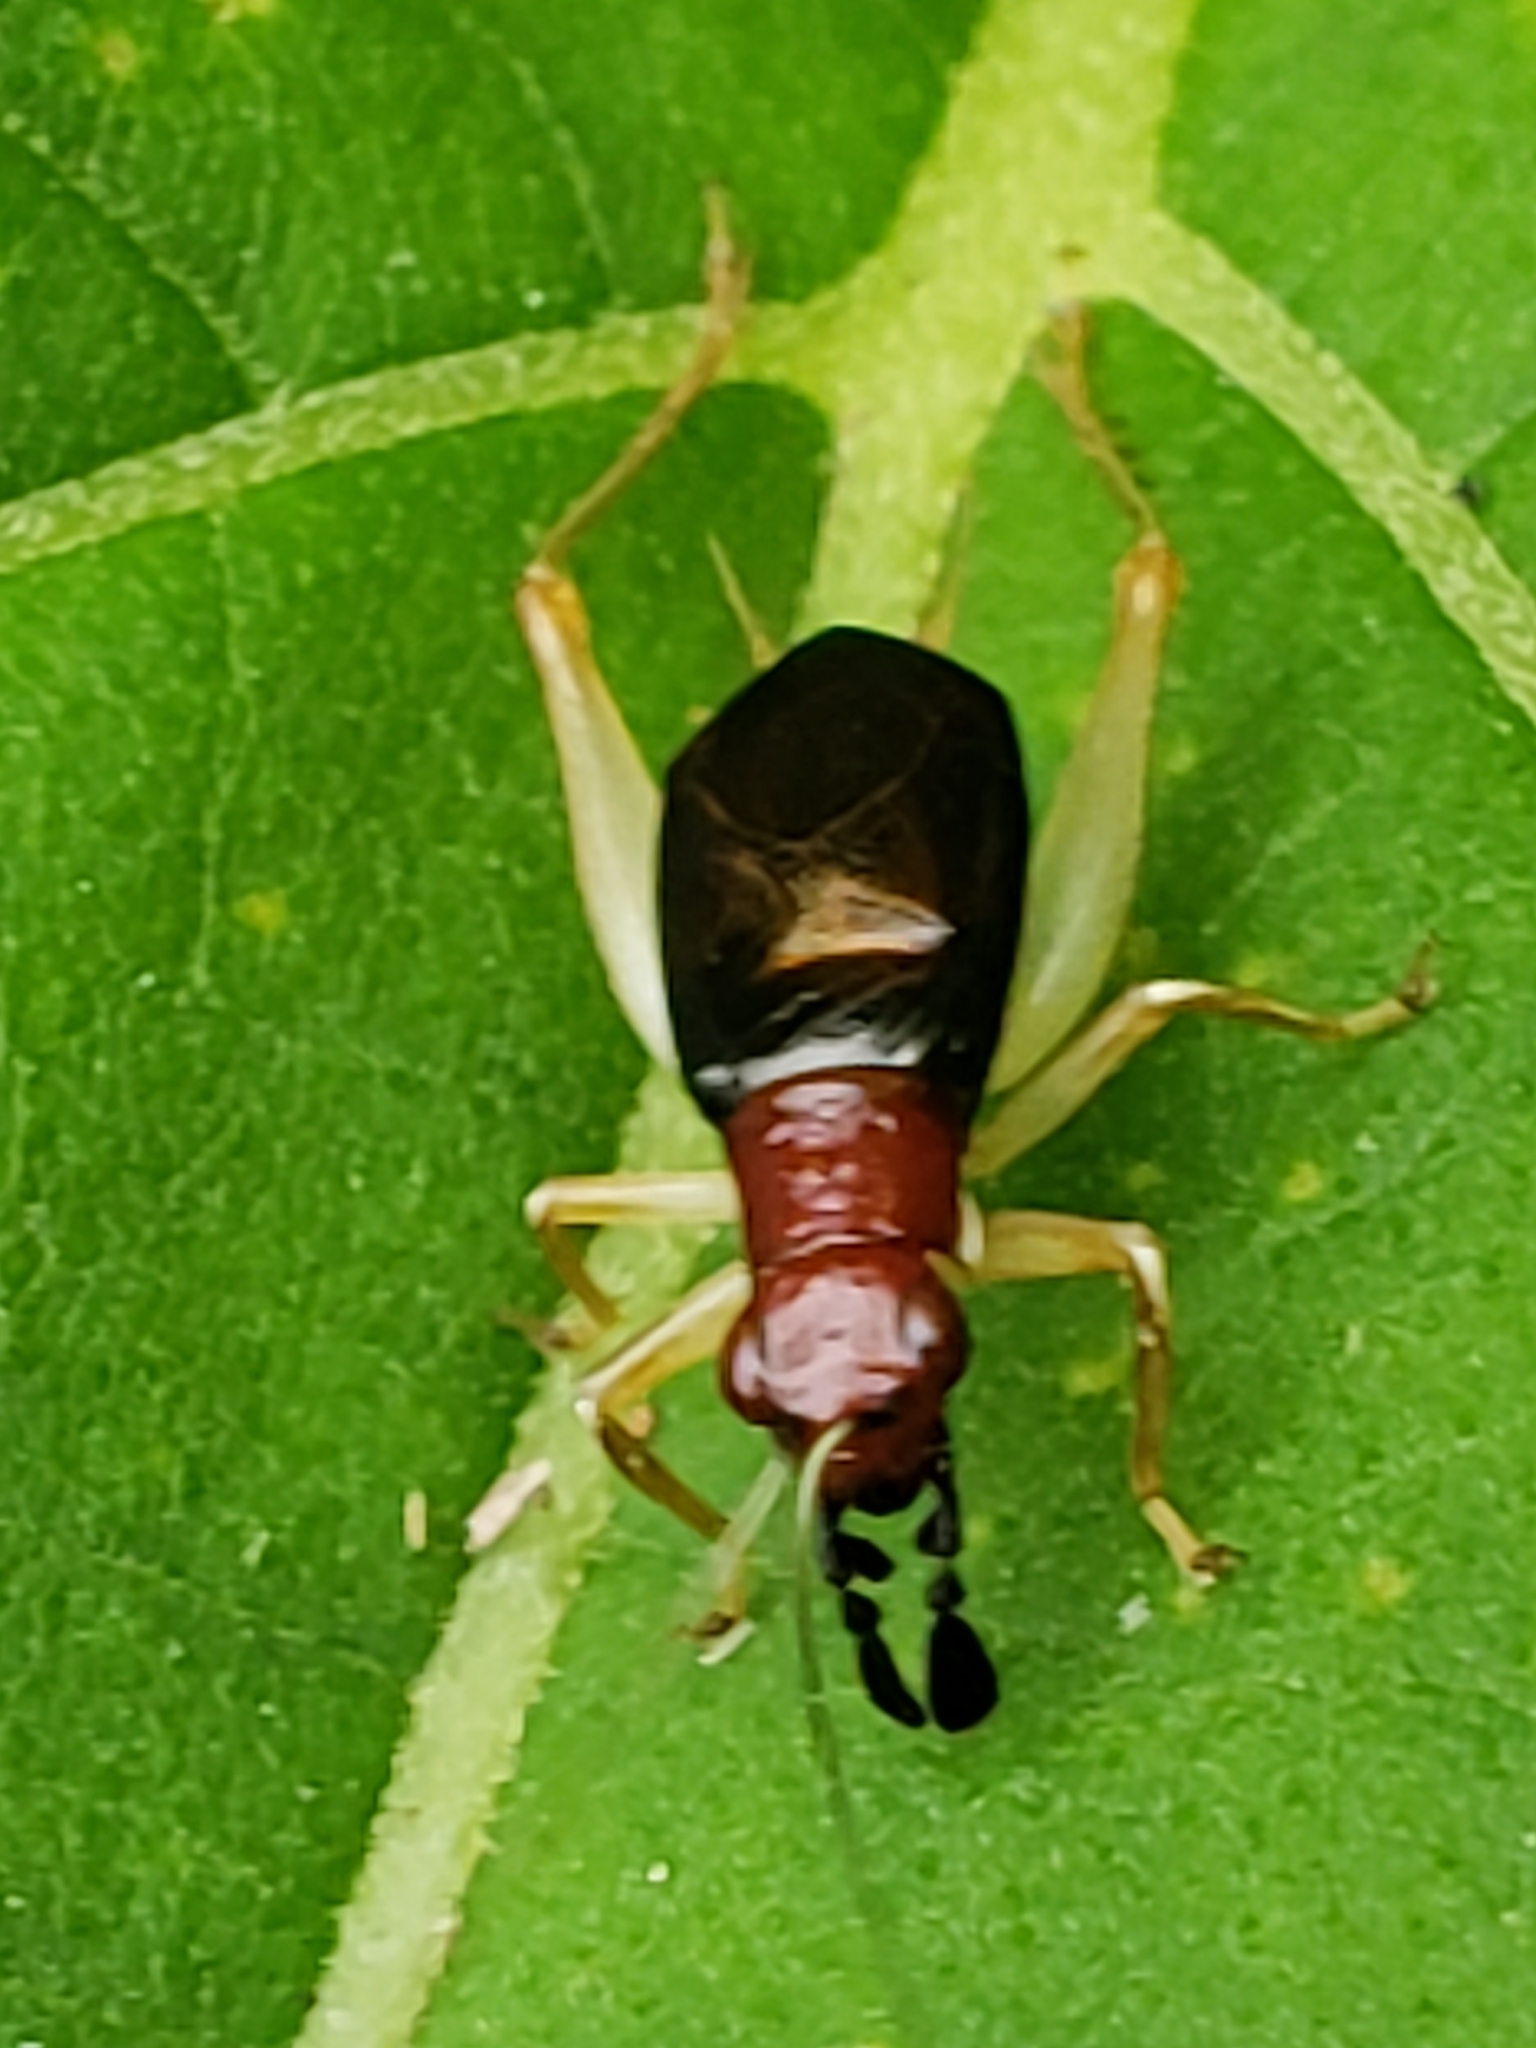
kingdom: Animalia
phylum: Arthropoda
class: Insecta
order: Orthoptera
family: Trigonidiidae
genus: Phyllopalpus
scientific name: Phyllopalpus pulchellus
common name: Handsome trig
